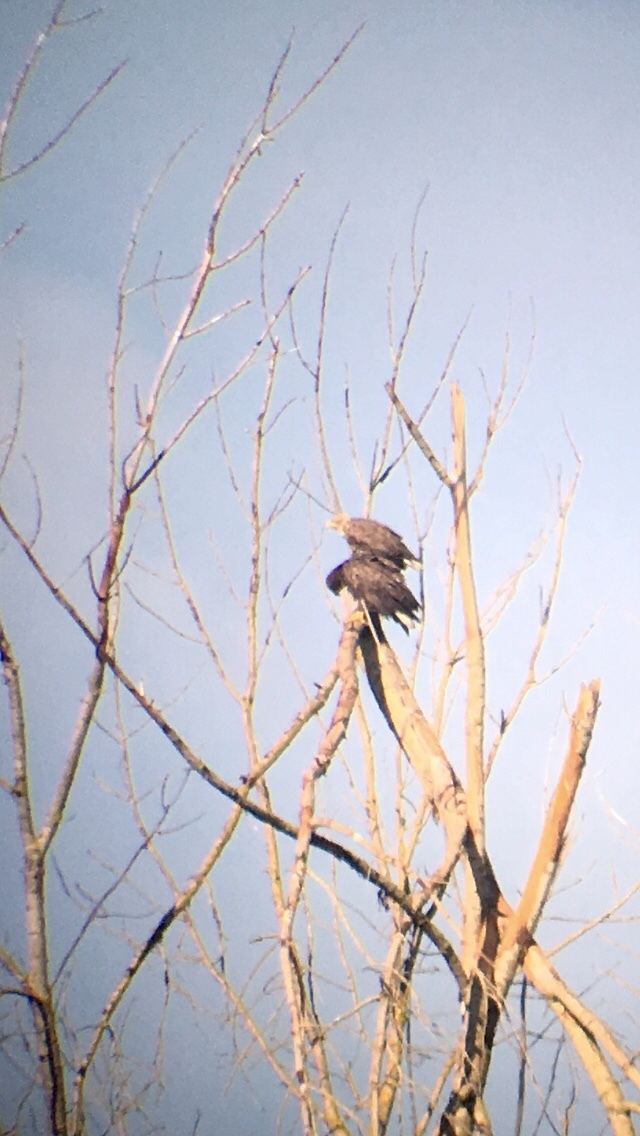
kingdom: Animalia
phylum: Chordata
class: Aves
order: Accipitriformes
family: Accipitridae
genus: Haliaeetus
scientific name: Haliaeetus albicilla
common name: White-tailed eagle
